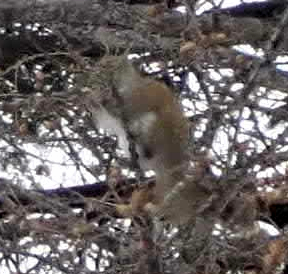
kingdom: Animalia
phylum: Chordata
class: Mammalia
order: Rodentia
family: Sciuridae
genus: Tamiasciurus
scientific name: Tamiasciurus hudsonicus
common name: Red squirrel
